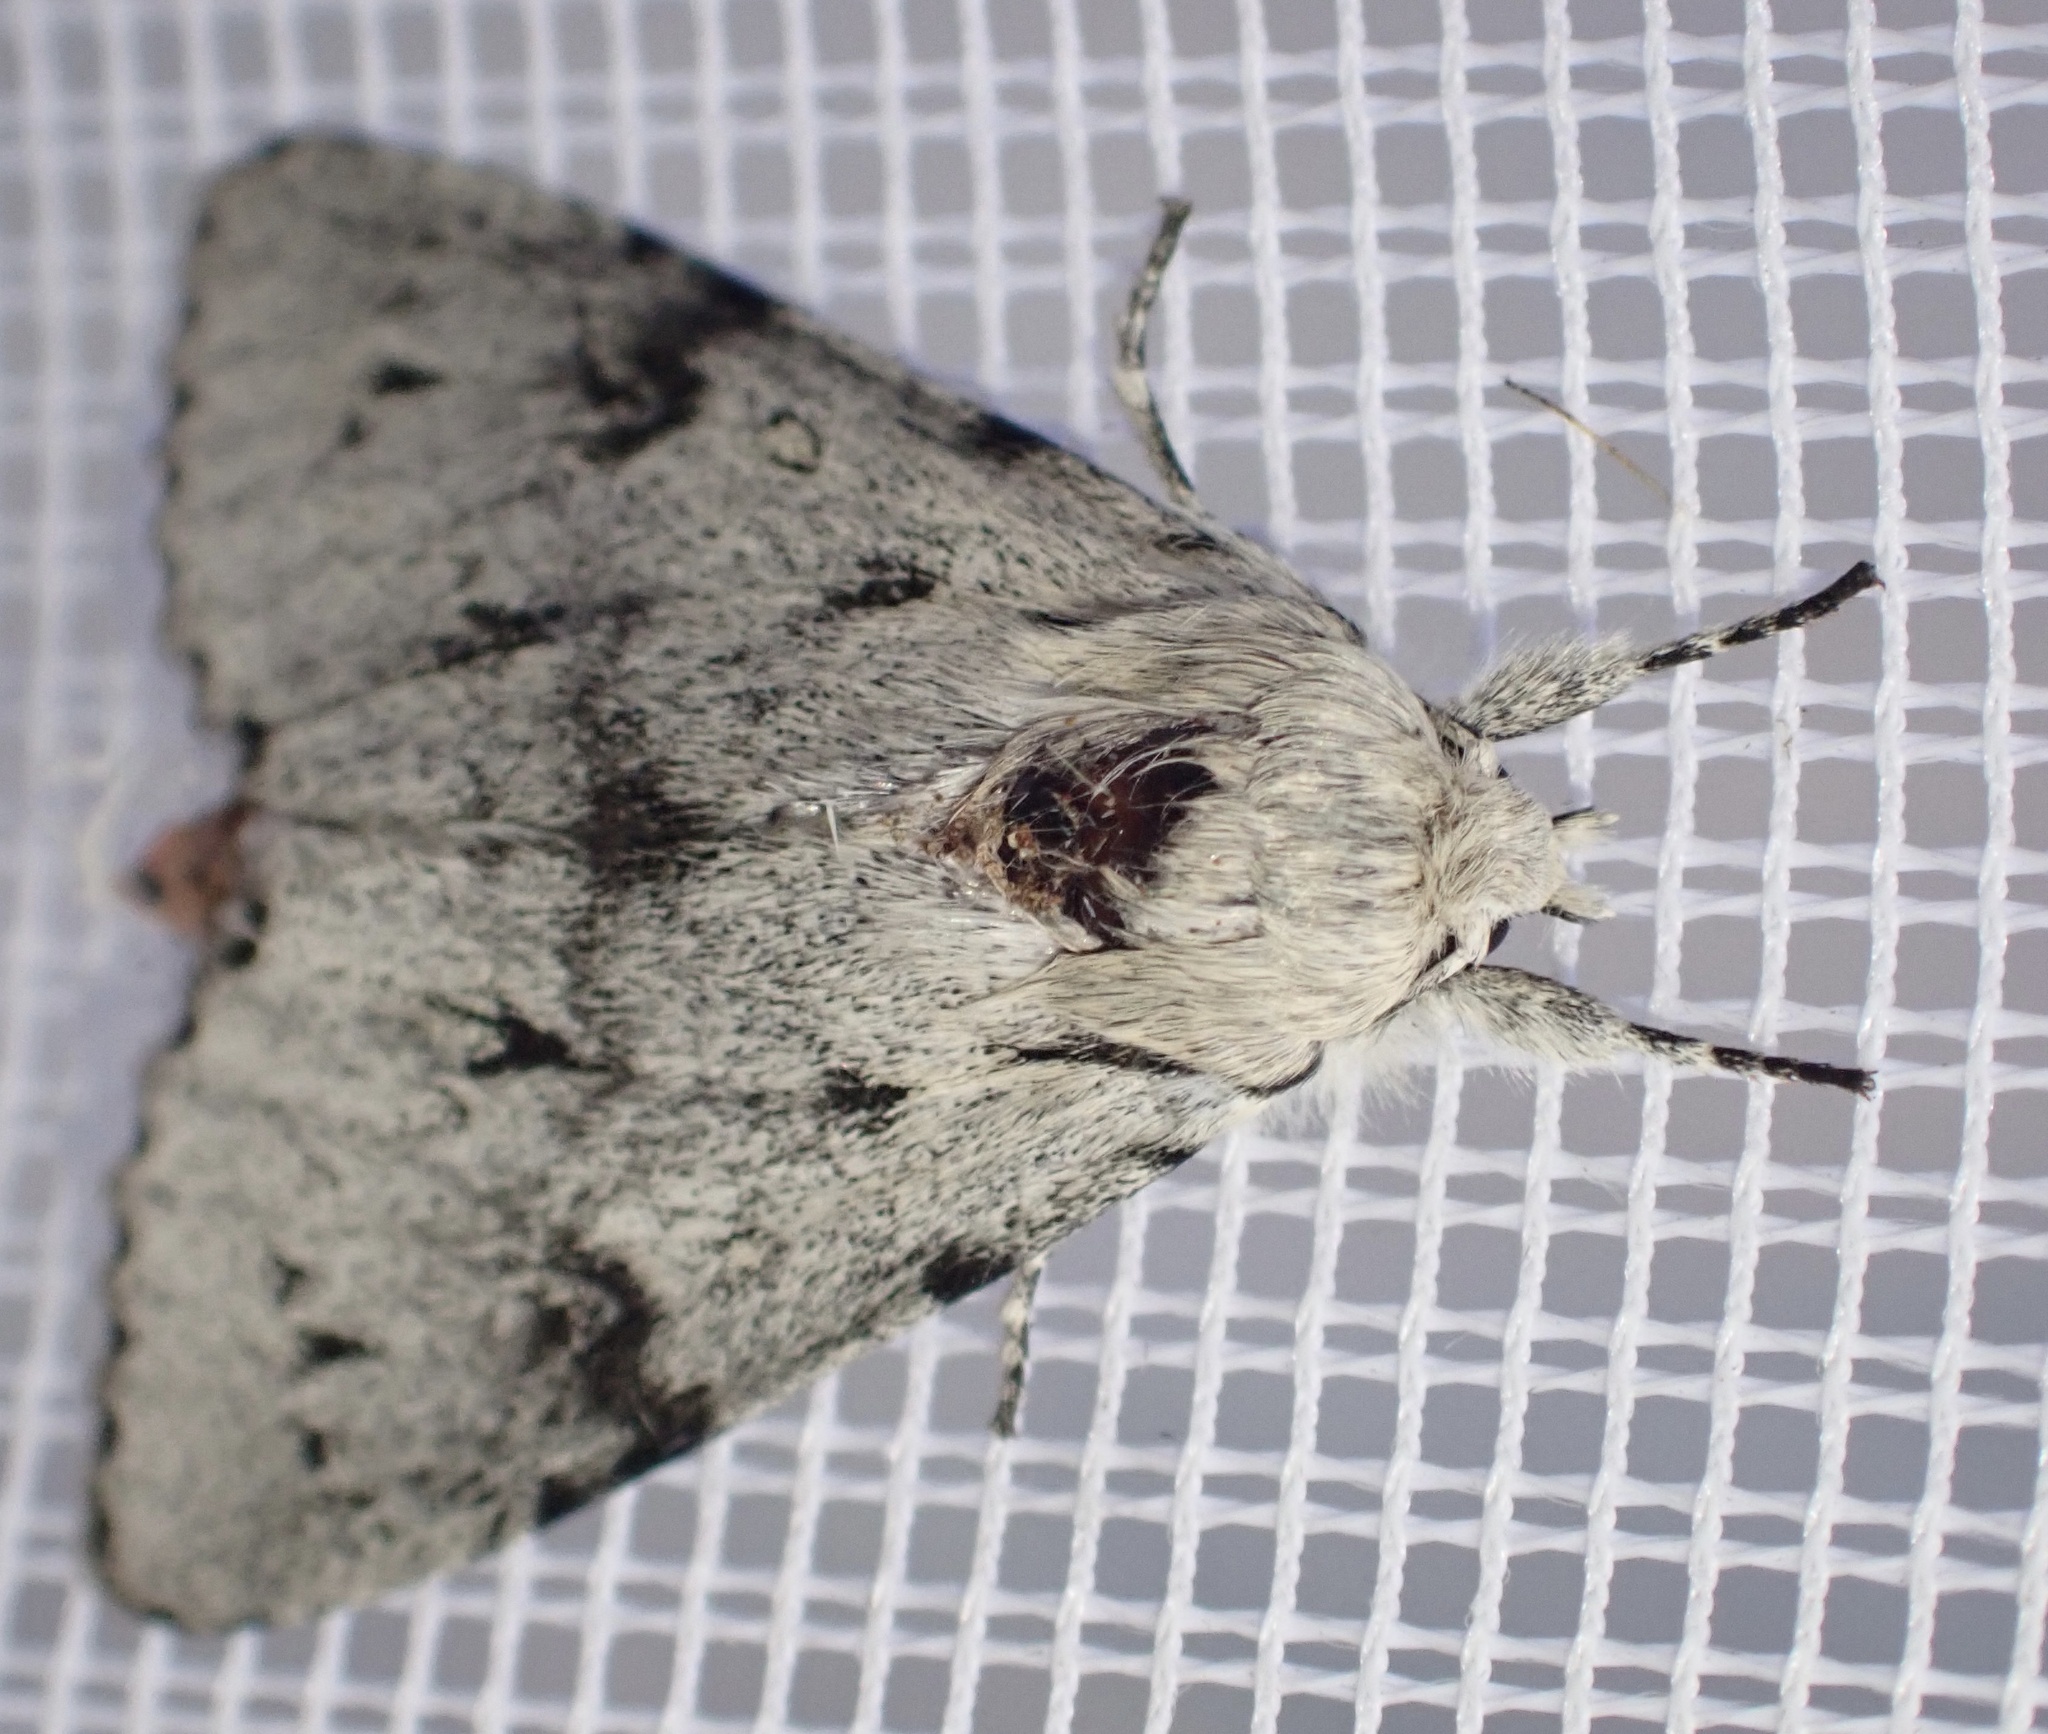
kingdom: Animalia
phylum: Arthropoda
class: Insecta
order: Lepidoptera
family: Noctuidae
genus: Acronicta
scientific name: Acronicta leporina
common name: Miller
